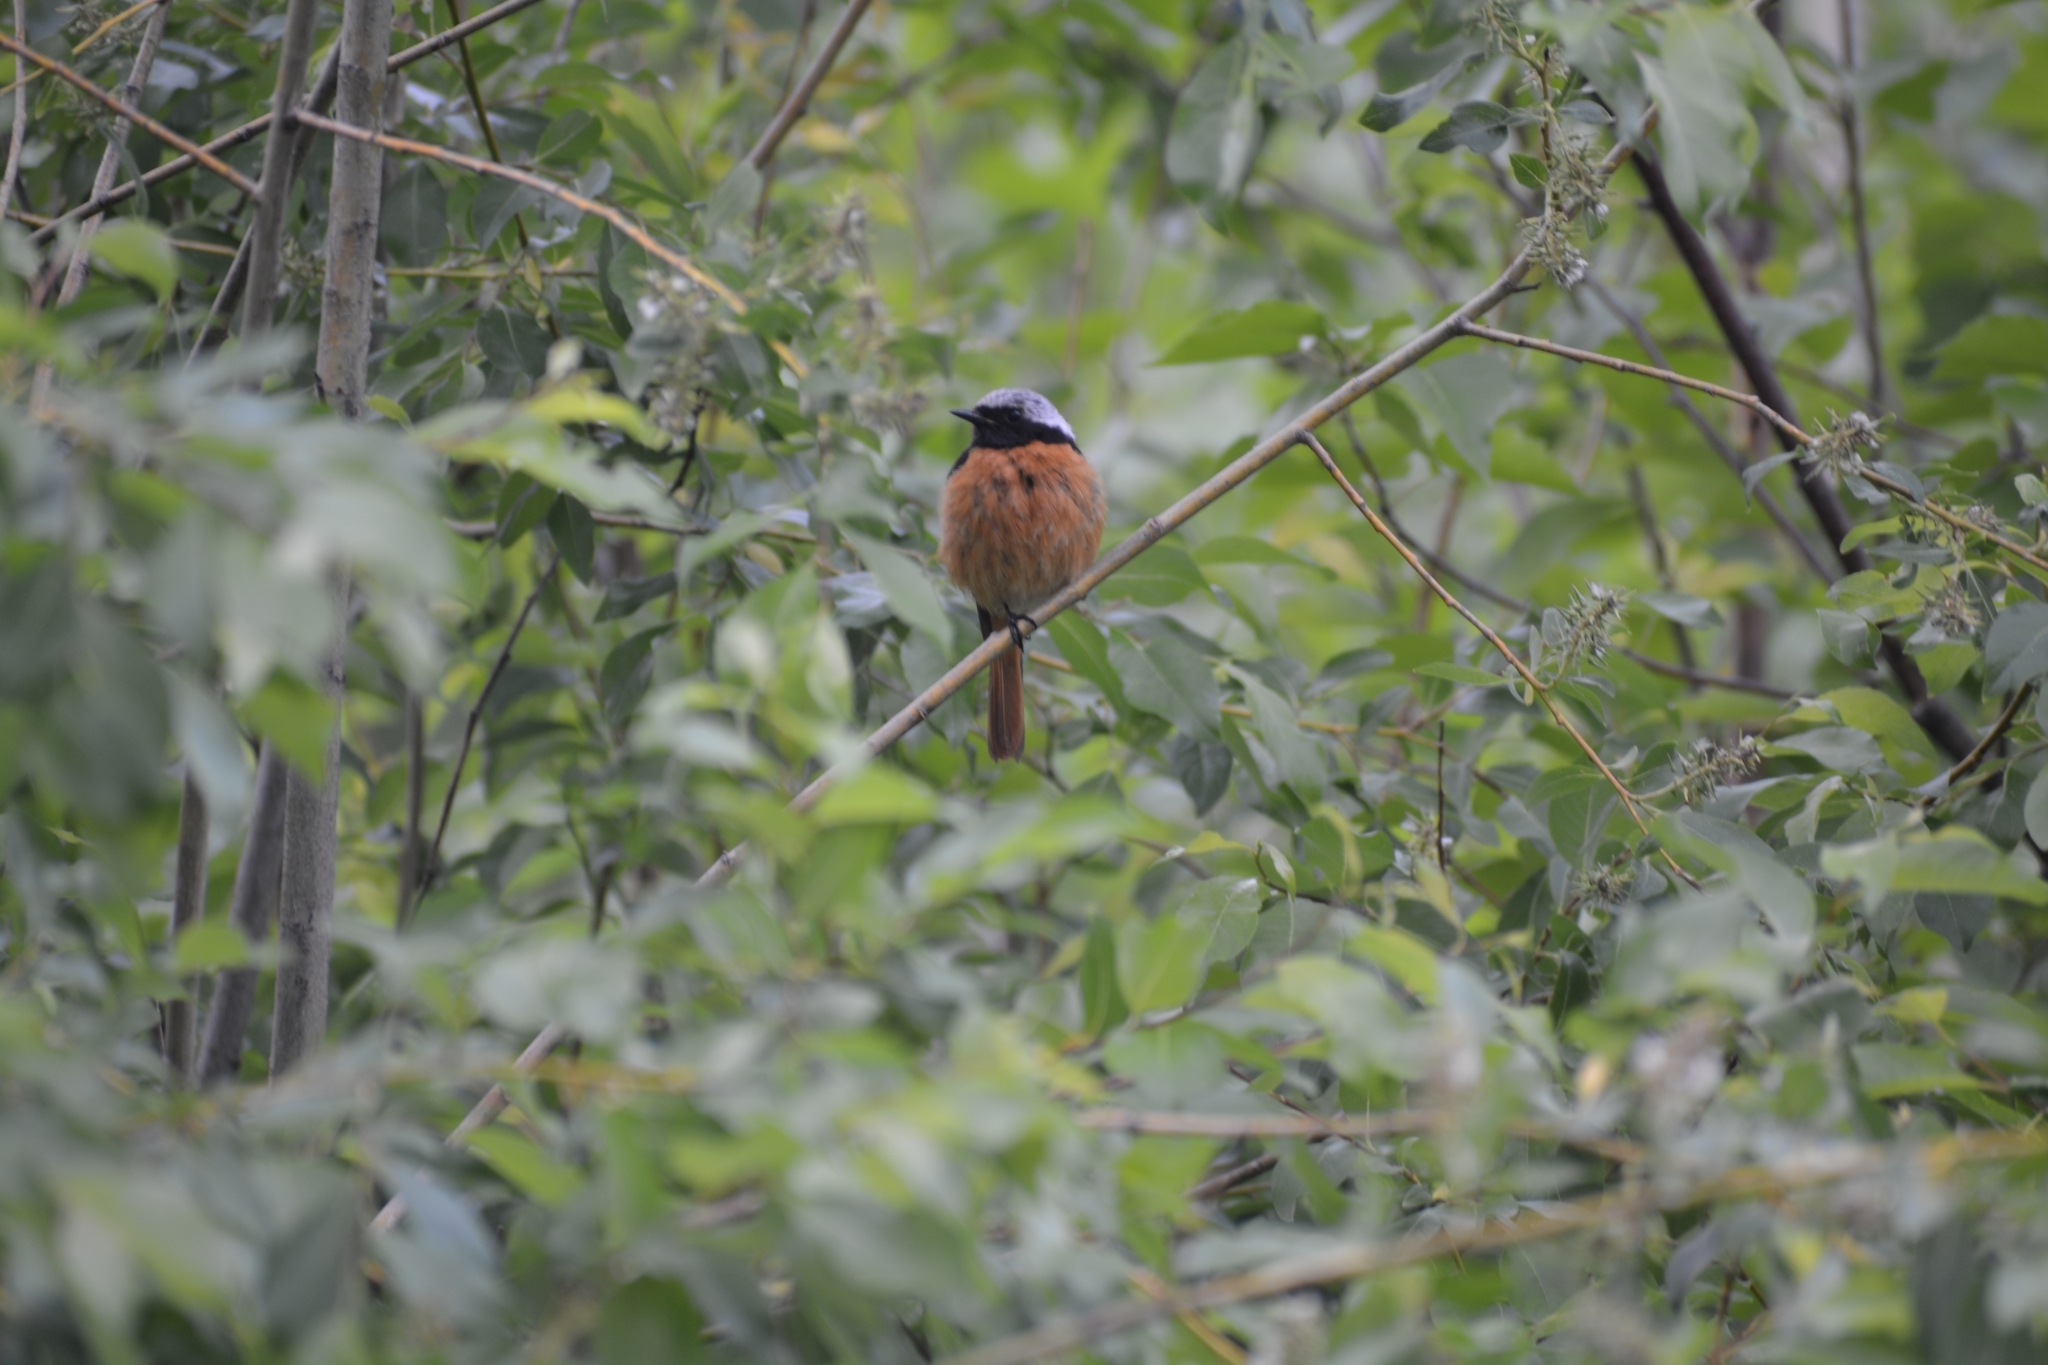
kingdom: Animalia
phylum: Chordata
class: Aves
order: Passeriformes
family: Muscicapidae
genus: Phoenicurus
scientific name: Phoenicurus auroreus
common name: Daurian redstart
